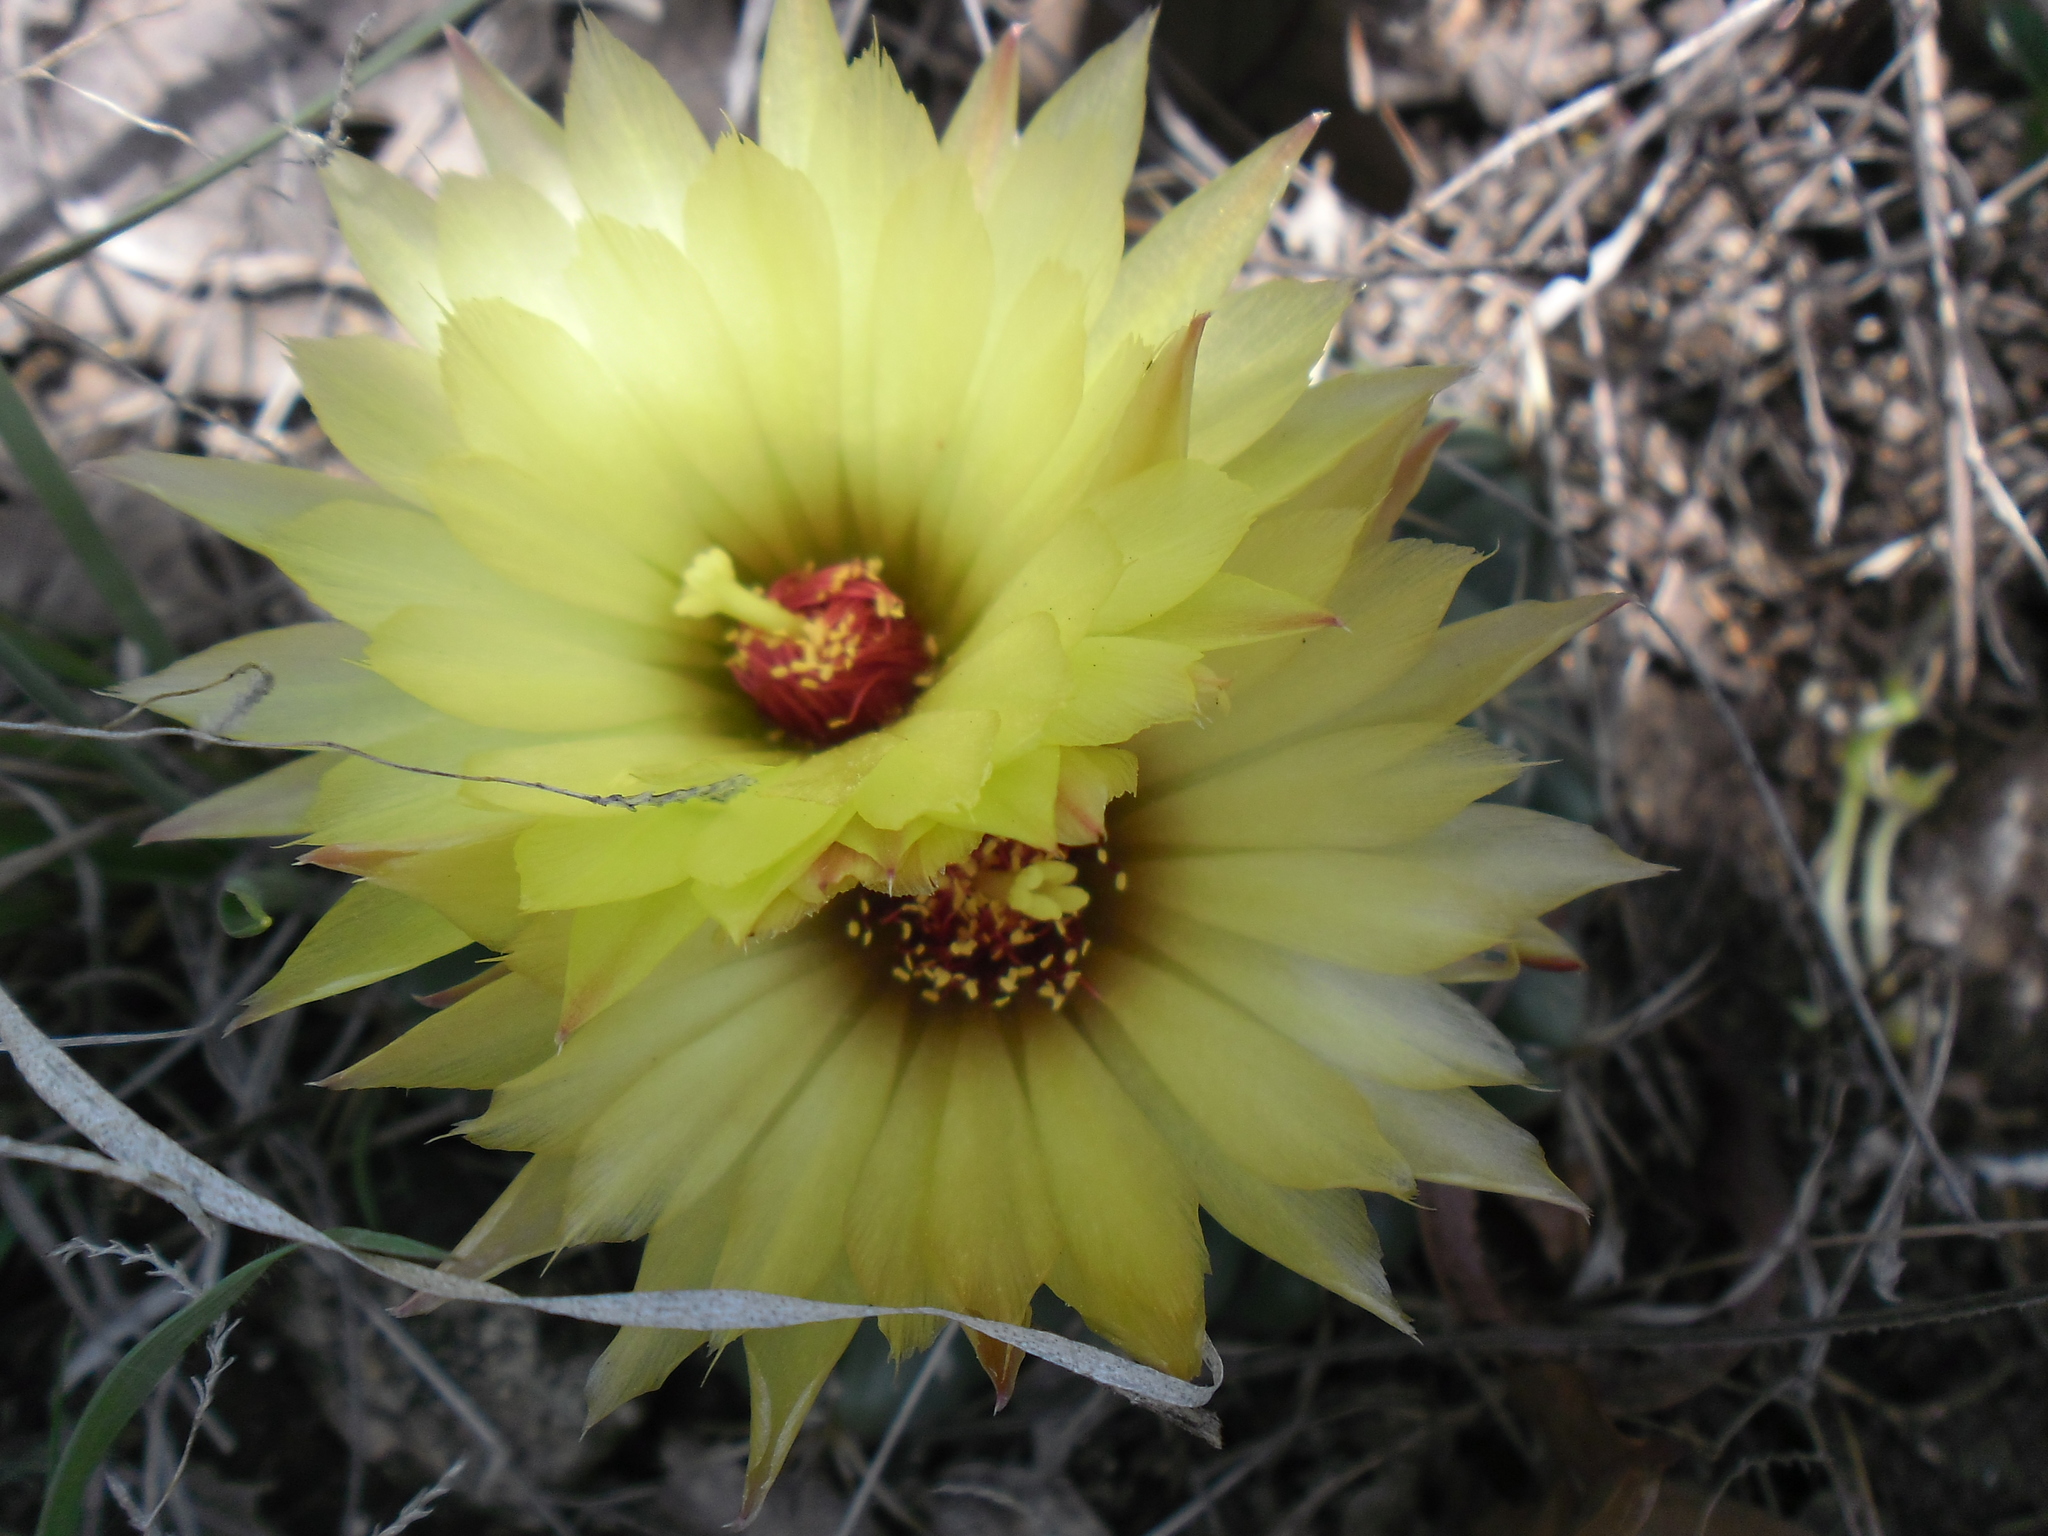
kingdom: Plantae
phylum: Tracheophyta
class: Magnoliopsida
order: Caryophyllales
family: Cactaceae
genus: Coryphantha
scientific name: Coryphantha pallida
